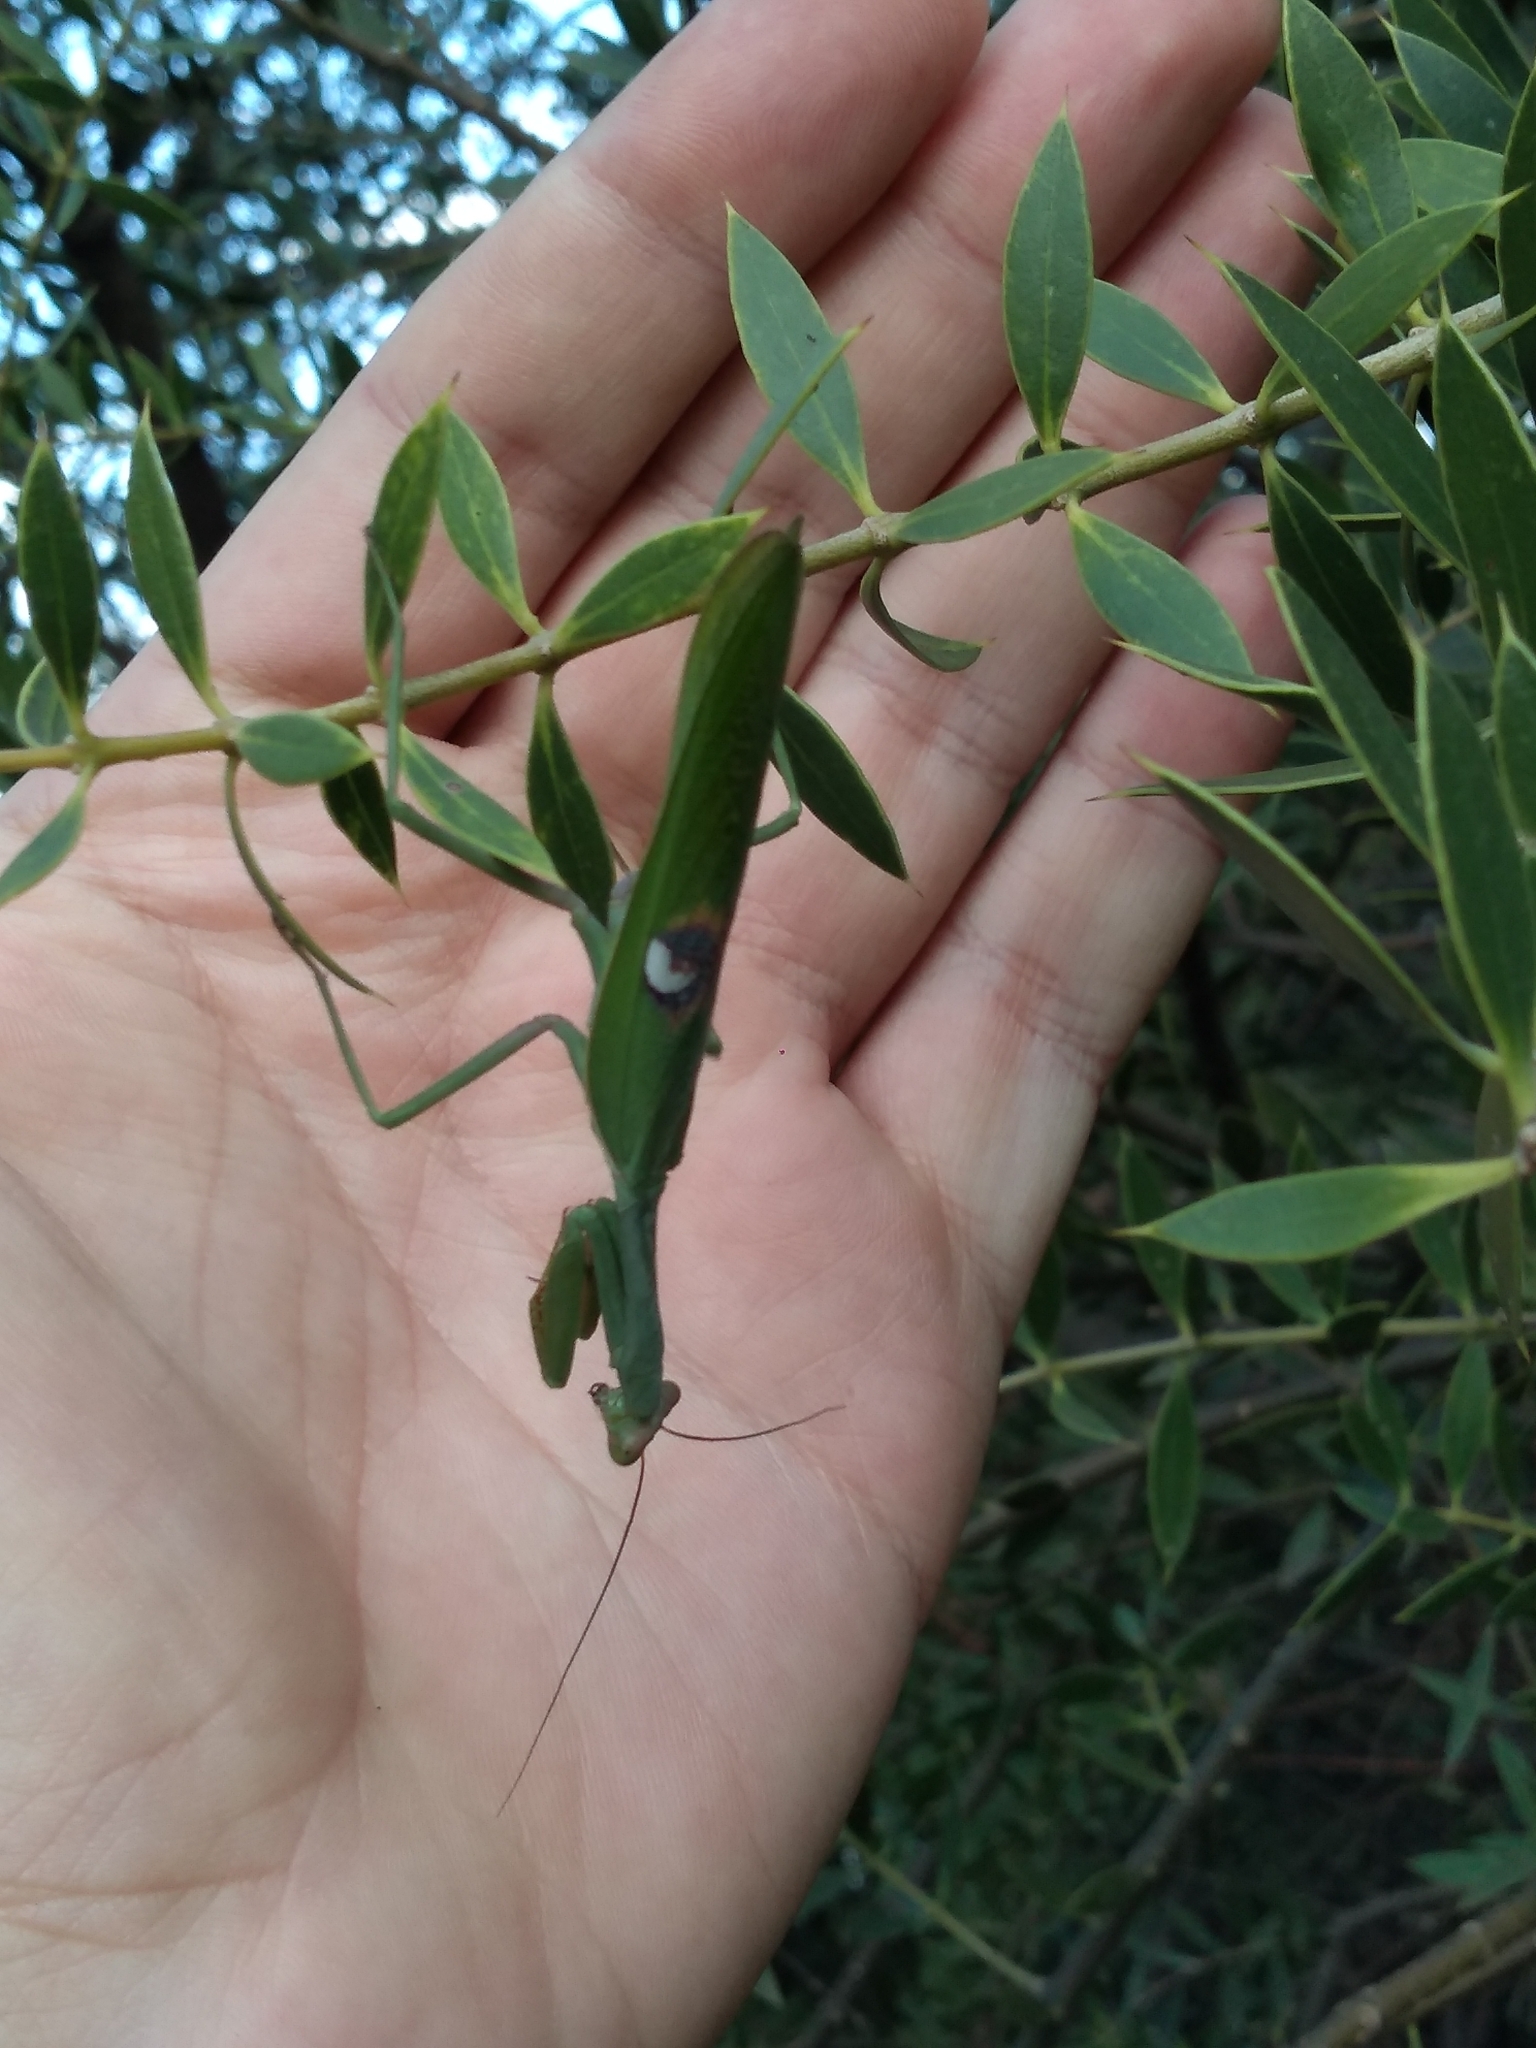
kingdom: Animalia
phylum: Arthropoda
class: Insecta
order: Mantodea
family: Mantidae
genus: Stagmatoptera
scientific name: Stagmatoptera hyaloptera
